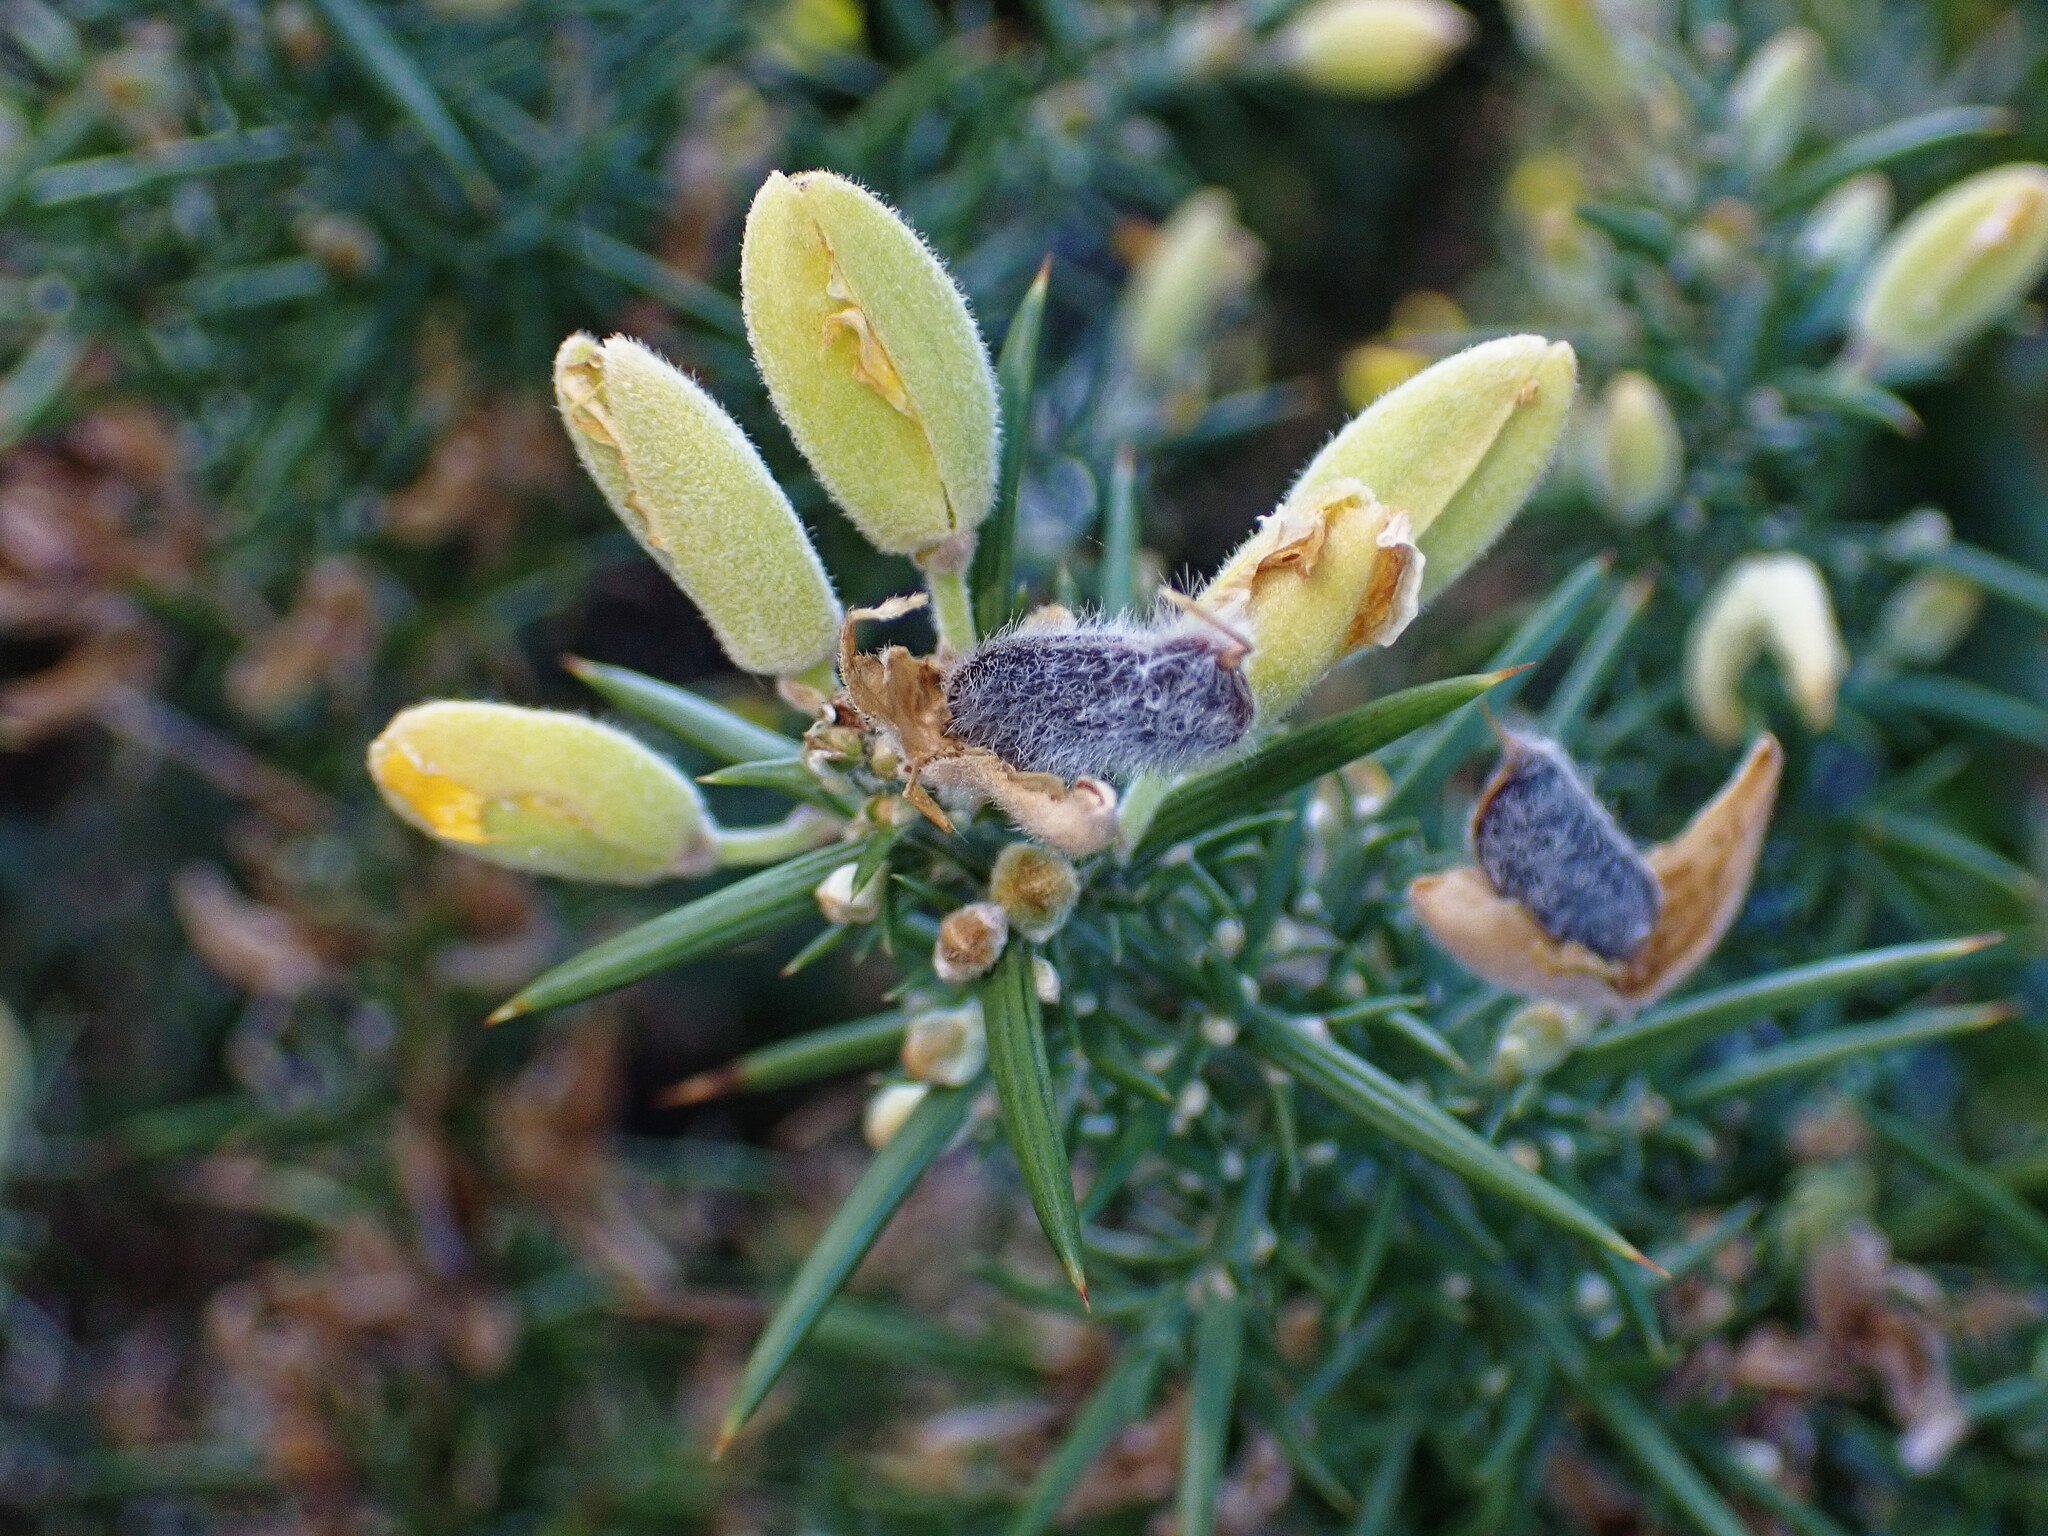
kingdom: Plantae
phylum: Tracheophyta
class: Magnoliopsida
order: Fabales
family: Fabaceae
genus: Ulex
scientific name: Ulex europaeus
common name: Common gorse
